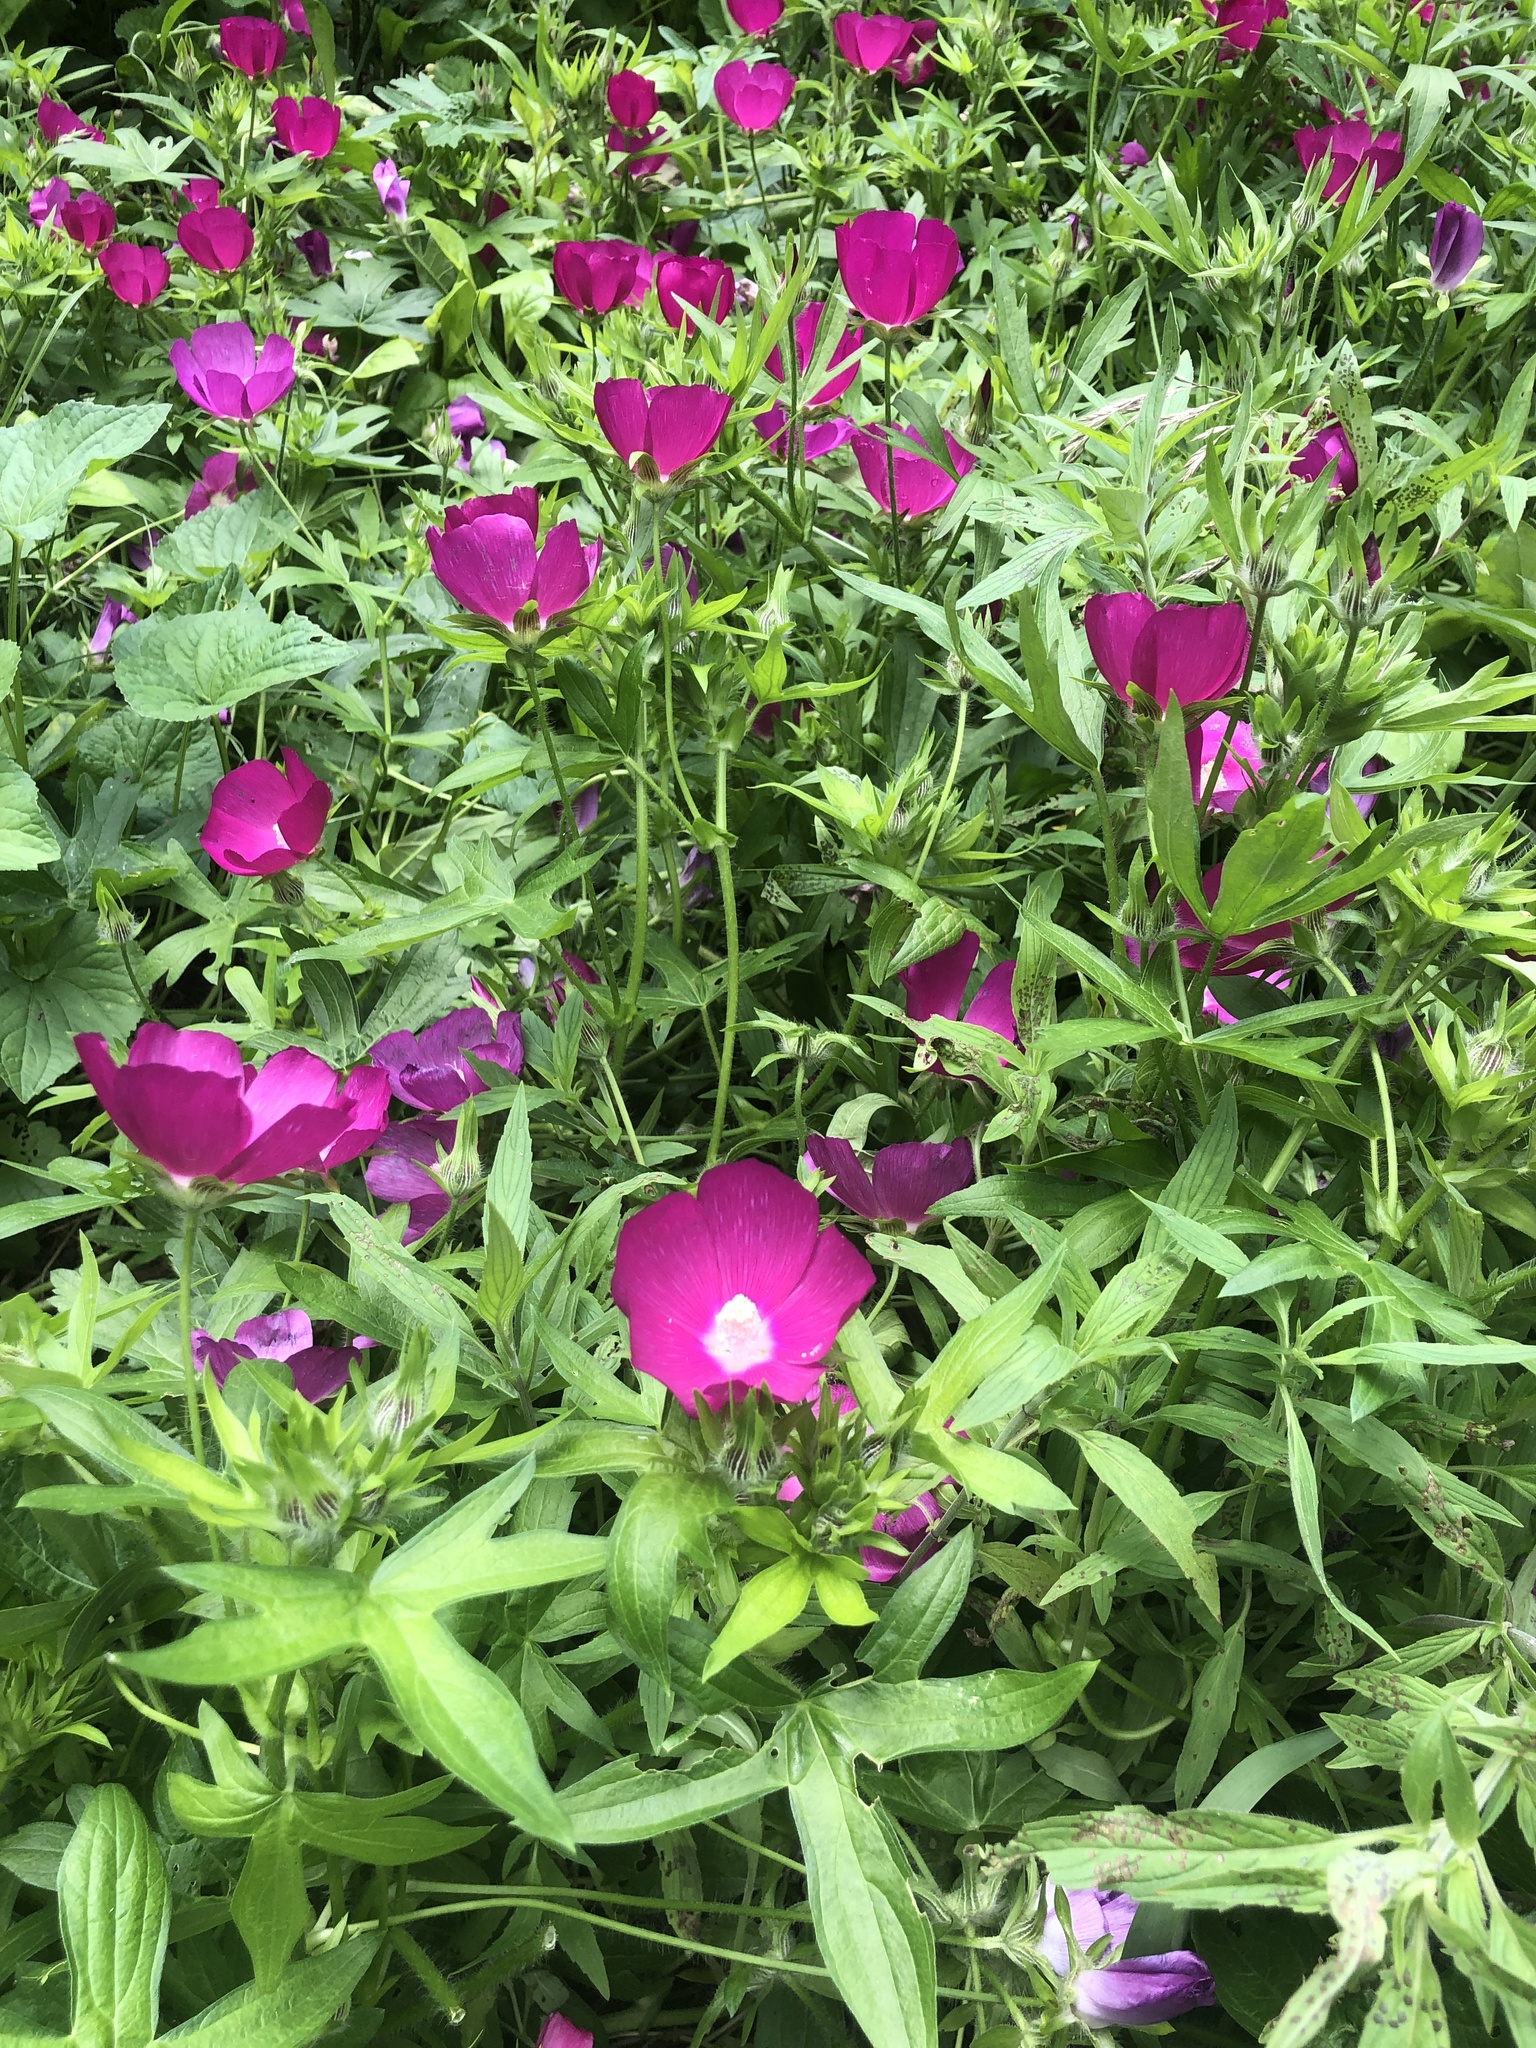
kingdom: Plantae
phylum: Tracheophyta
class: Magnoliopsida
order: Malvales
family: Malvaceae
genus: Callirhoe
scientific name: Callirhoe involucrata
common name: Purple poppy-mallow
